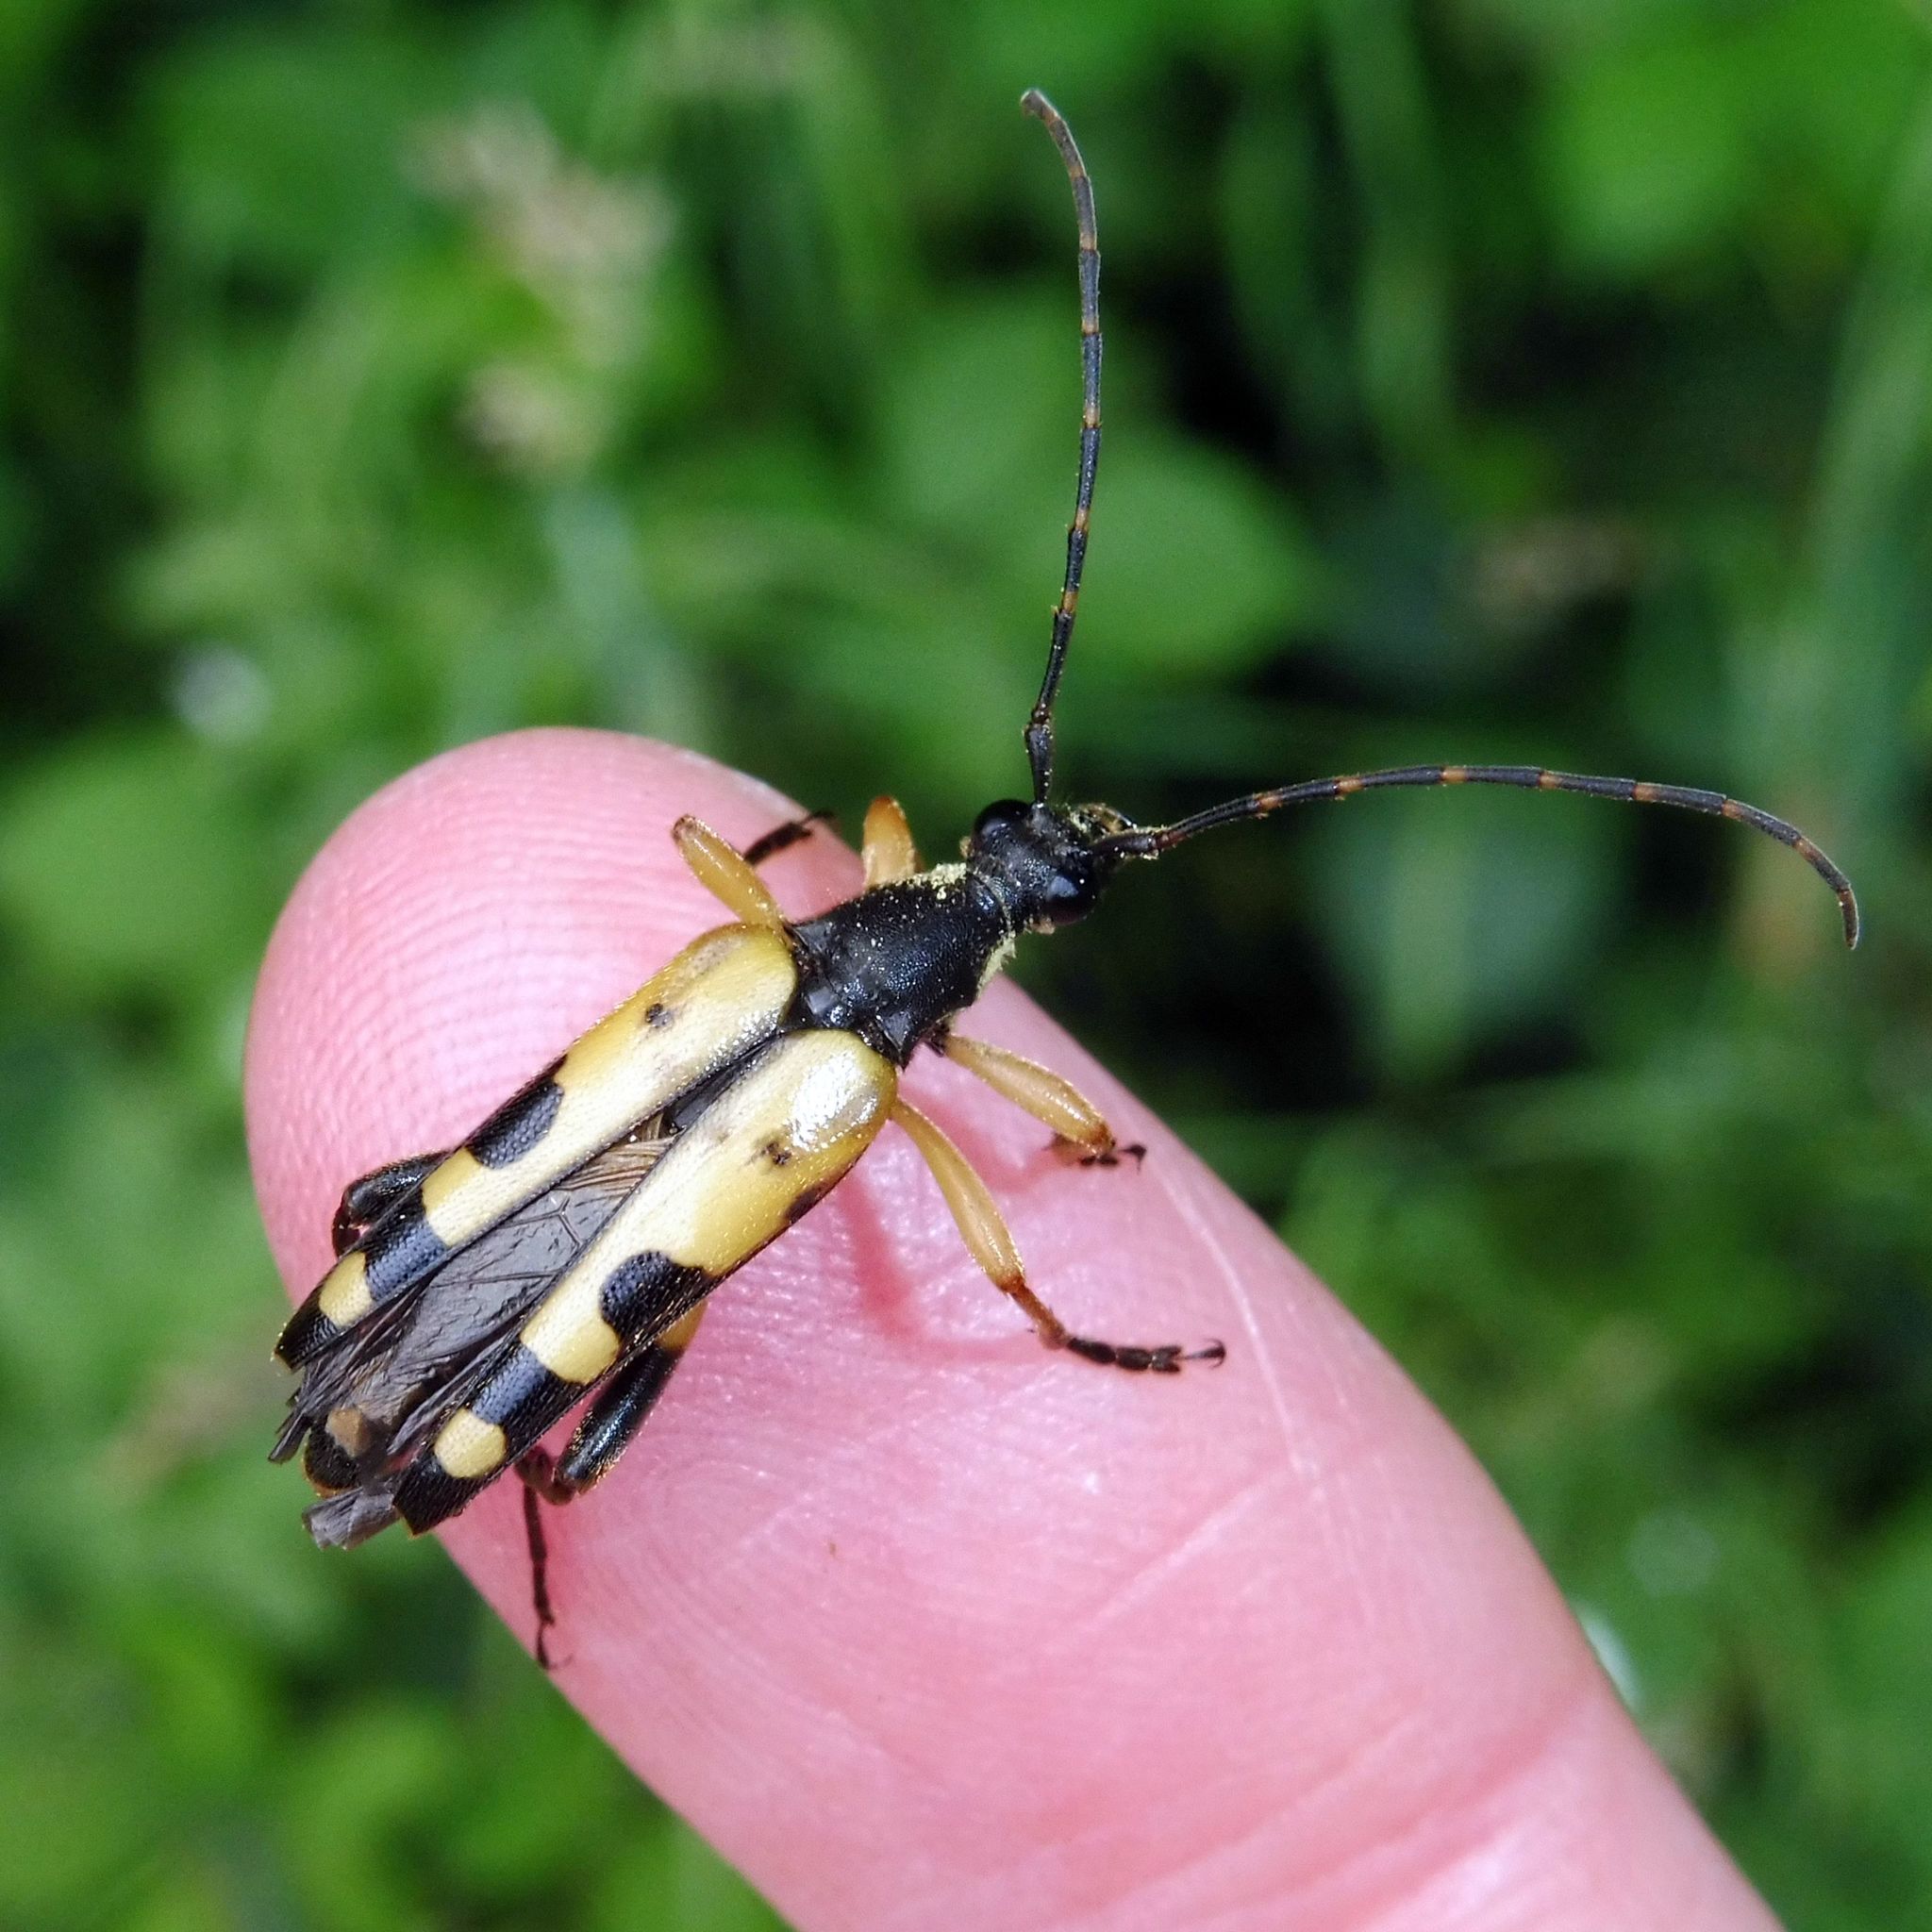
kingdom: Animalia
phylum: Arthropoda
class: Insecta
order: Coleoptera
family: Cerambycidae
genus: Rutpela
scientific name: Rutpela maculata
